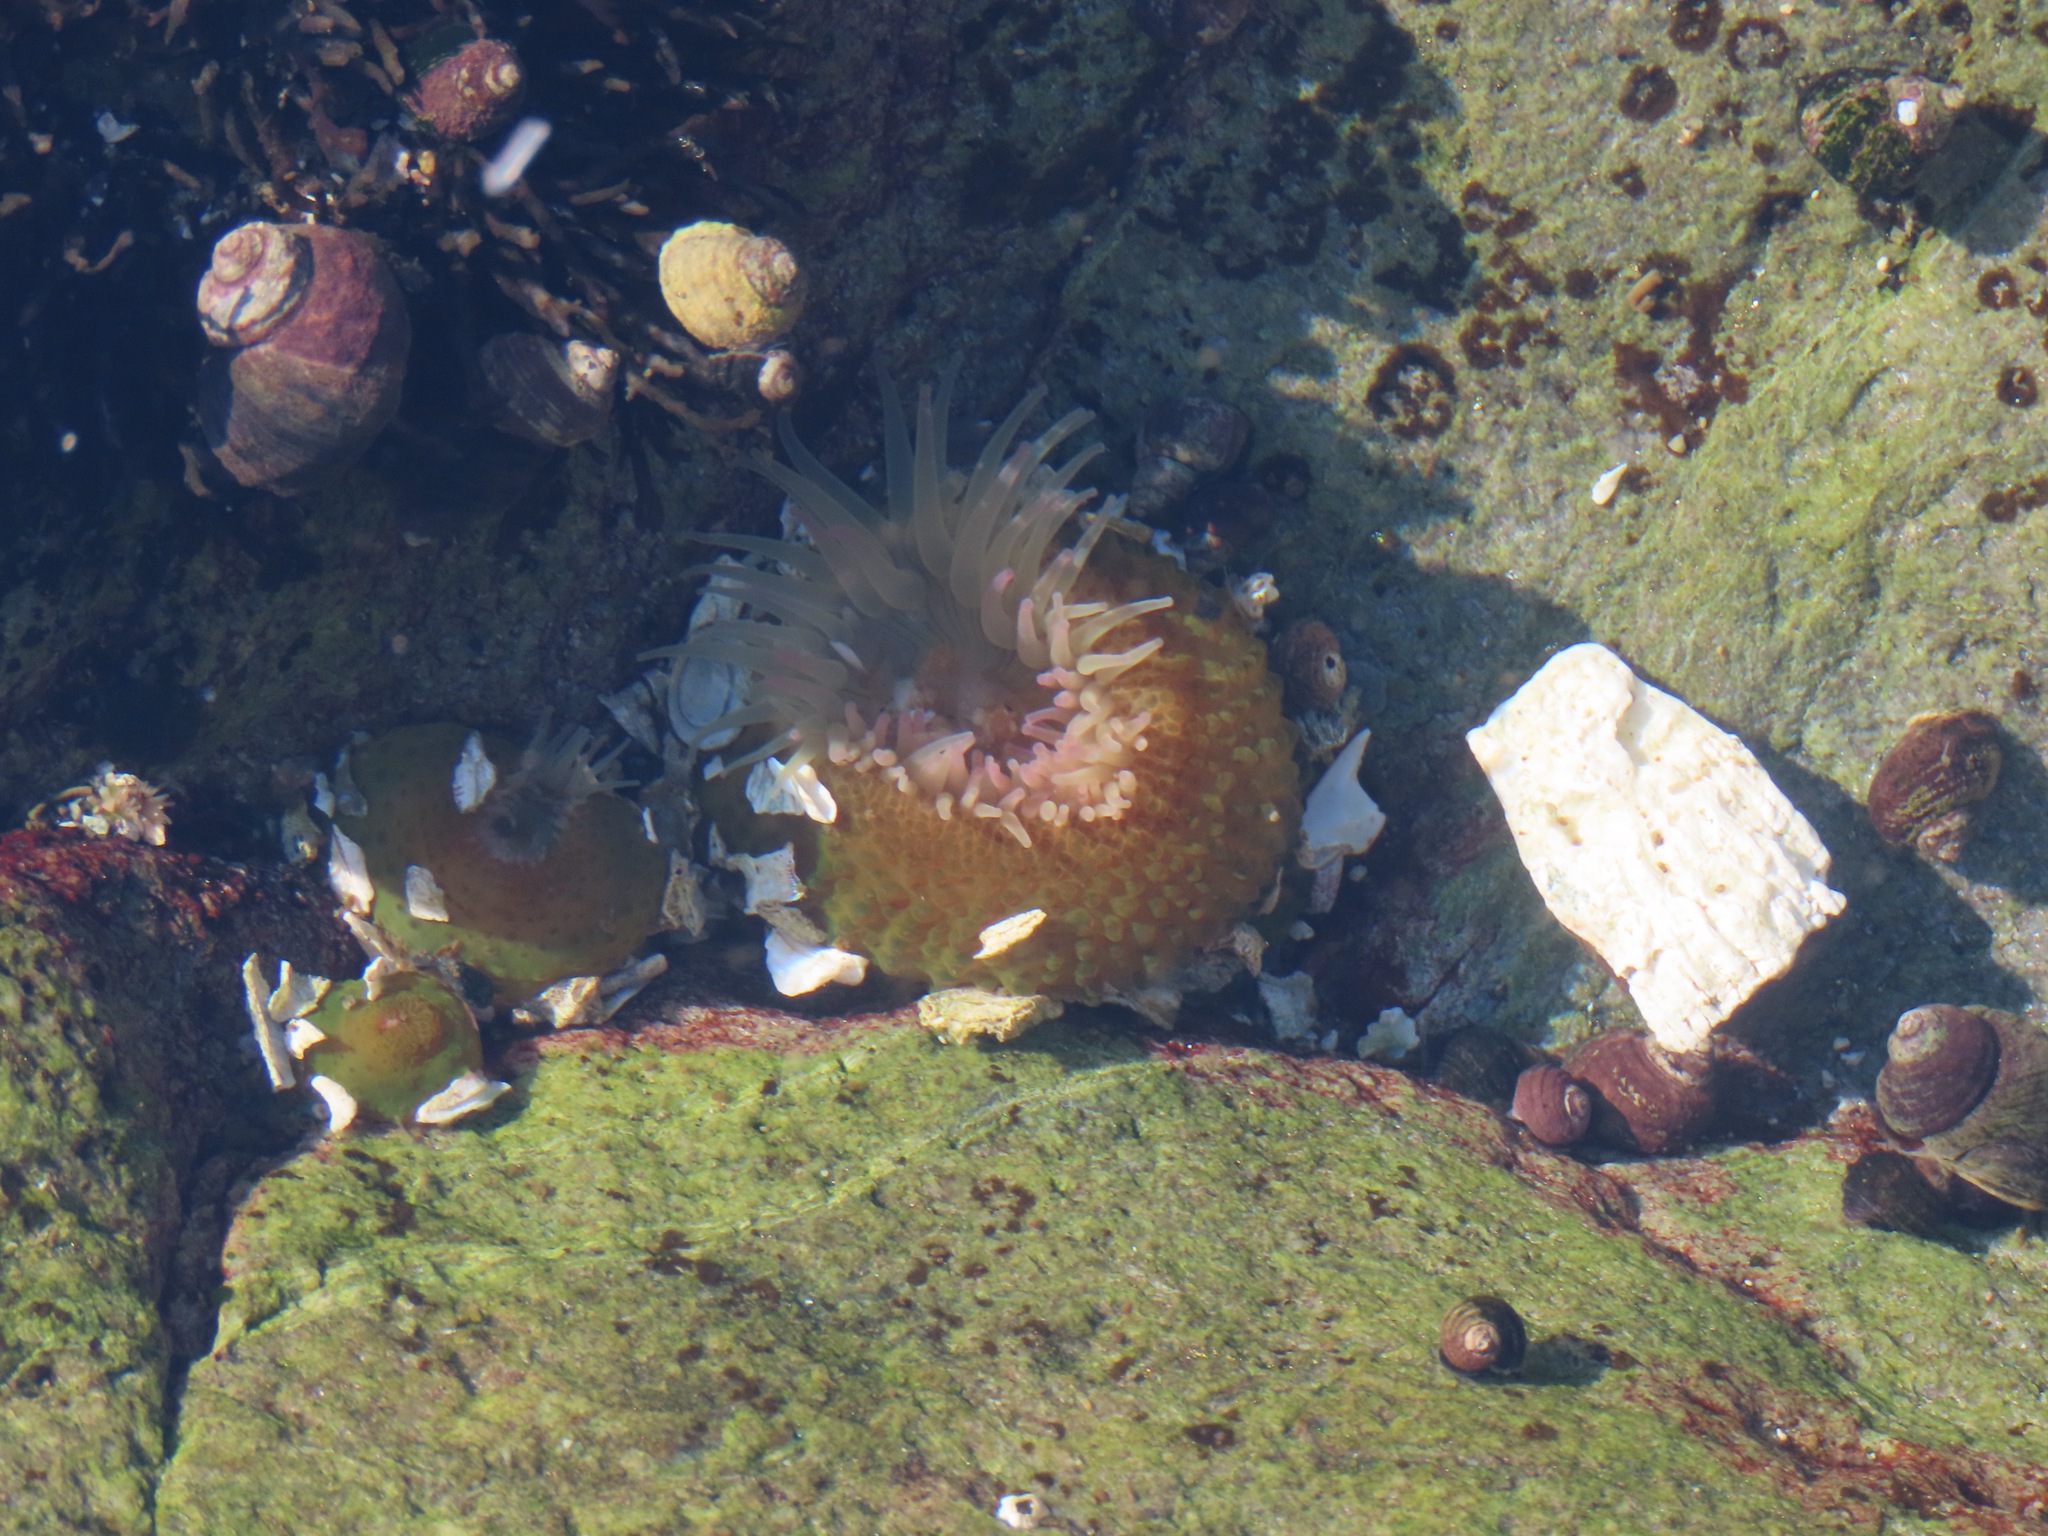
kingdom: Animalia
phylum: Cnidaria
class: Anthozoa
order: Actiniaria
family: Actiniidae
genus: Anthopleura
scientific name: Anthopleura elegantissima
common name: Clonal anemone
